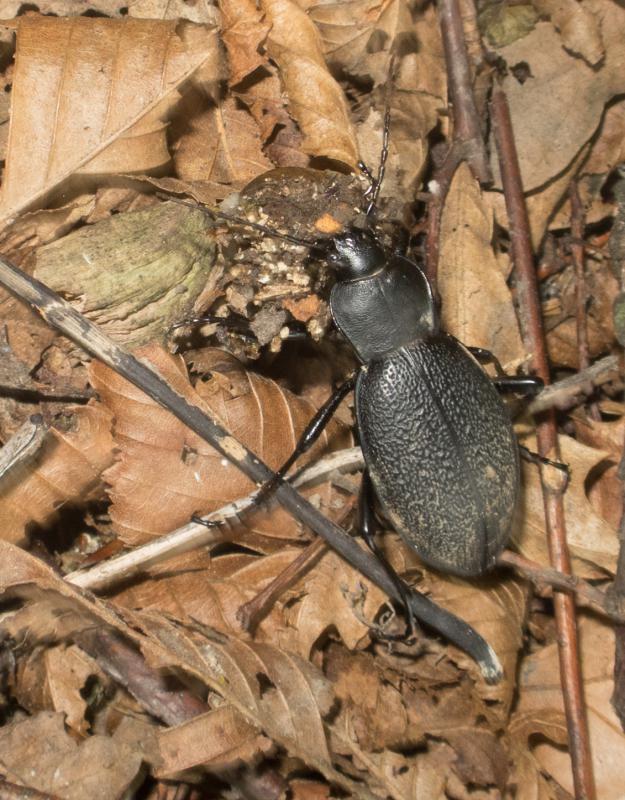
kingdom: Animalia
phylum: Arthropoda
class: Insecta
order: Coleoptera
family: Carabidae
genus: Carabus
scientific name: Carabus coriaceus
